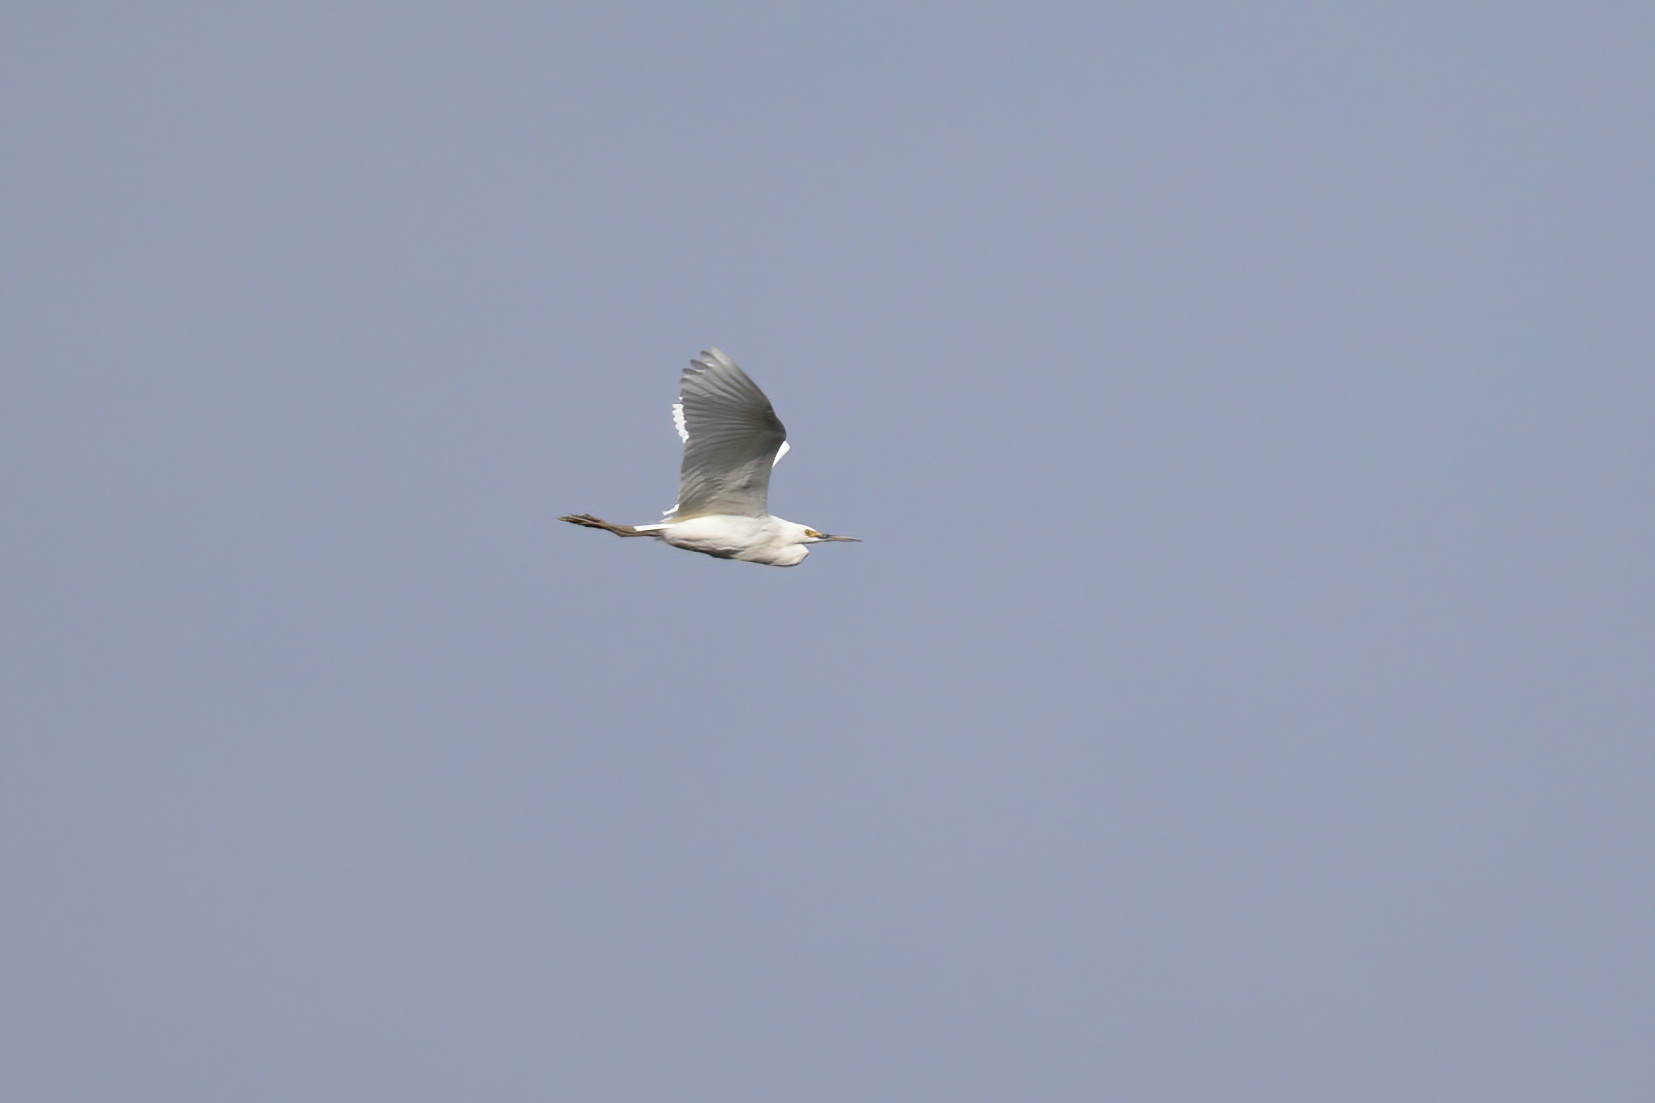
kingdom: Animalia
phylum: Chordata
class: Aves
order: Pelecaniformes
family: Ardeidae
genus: Egretta
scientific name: Egretta thula
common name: Snowy egret
